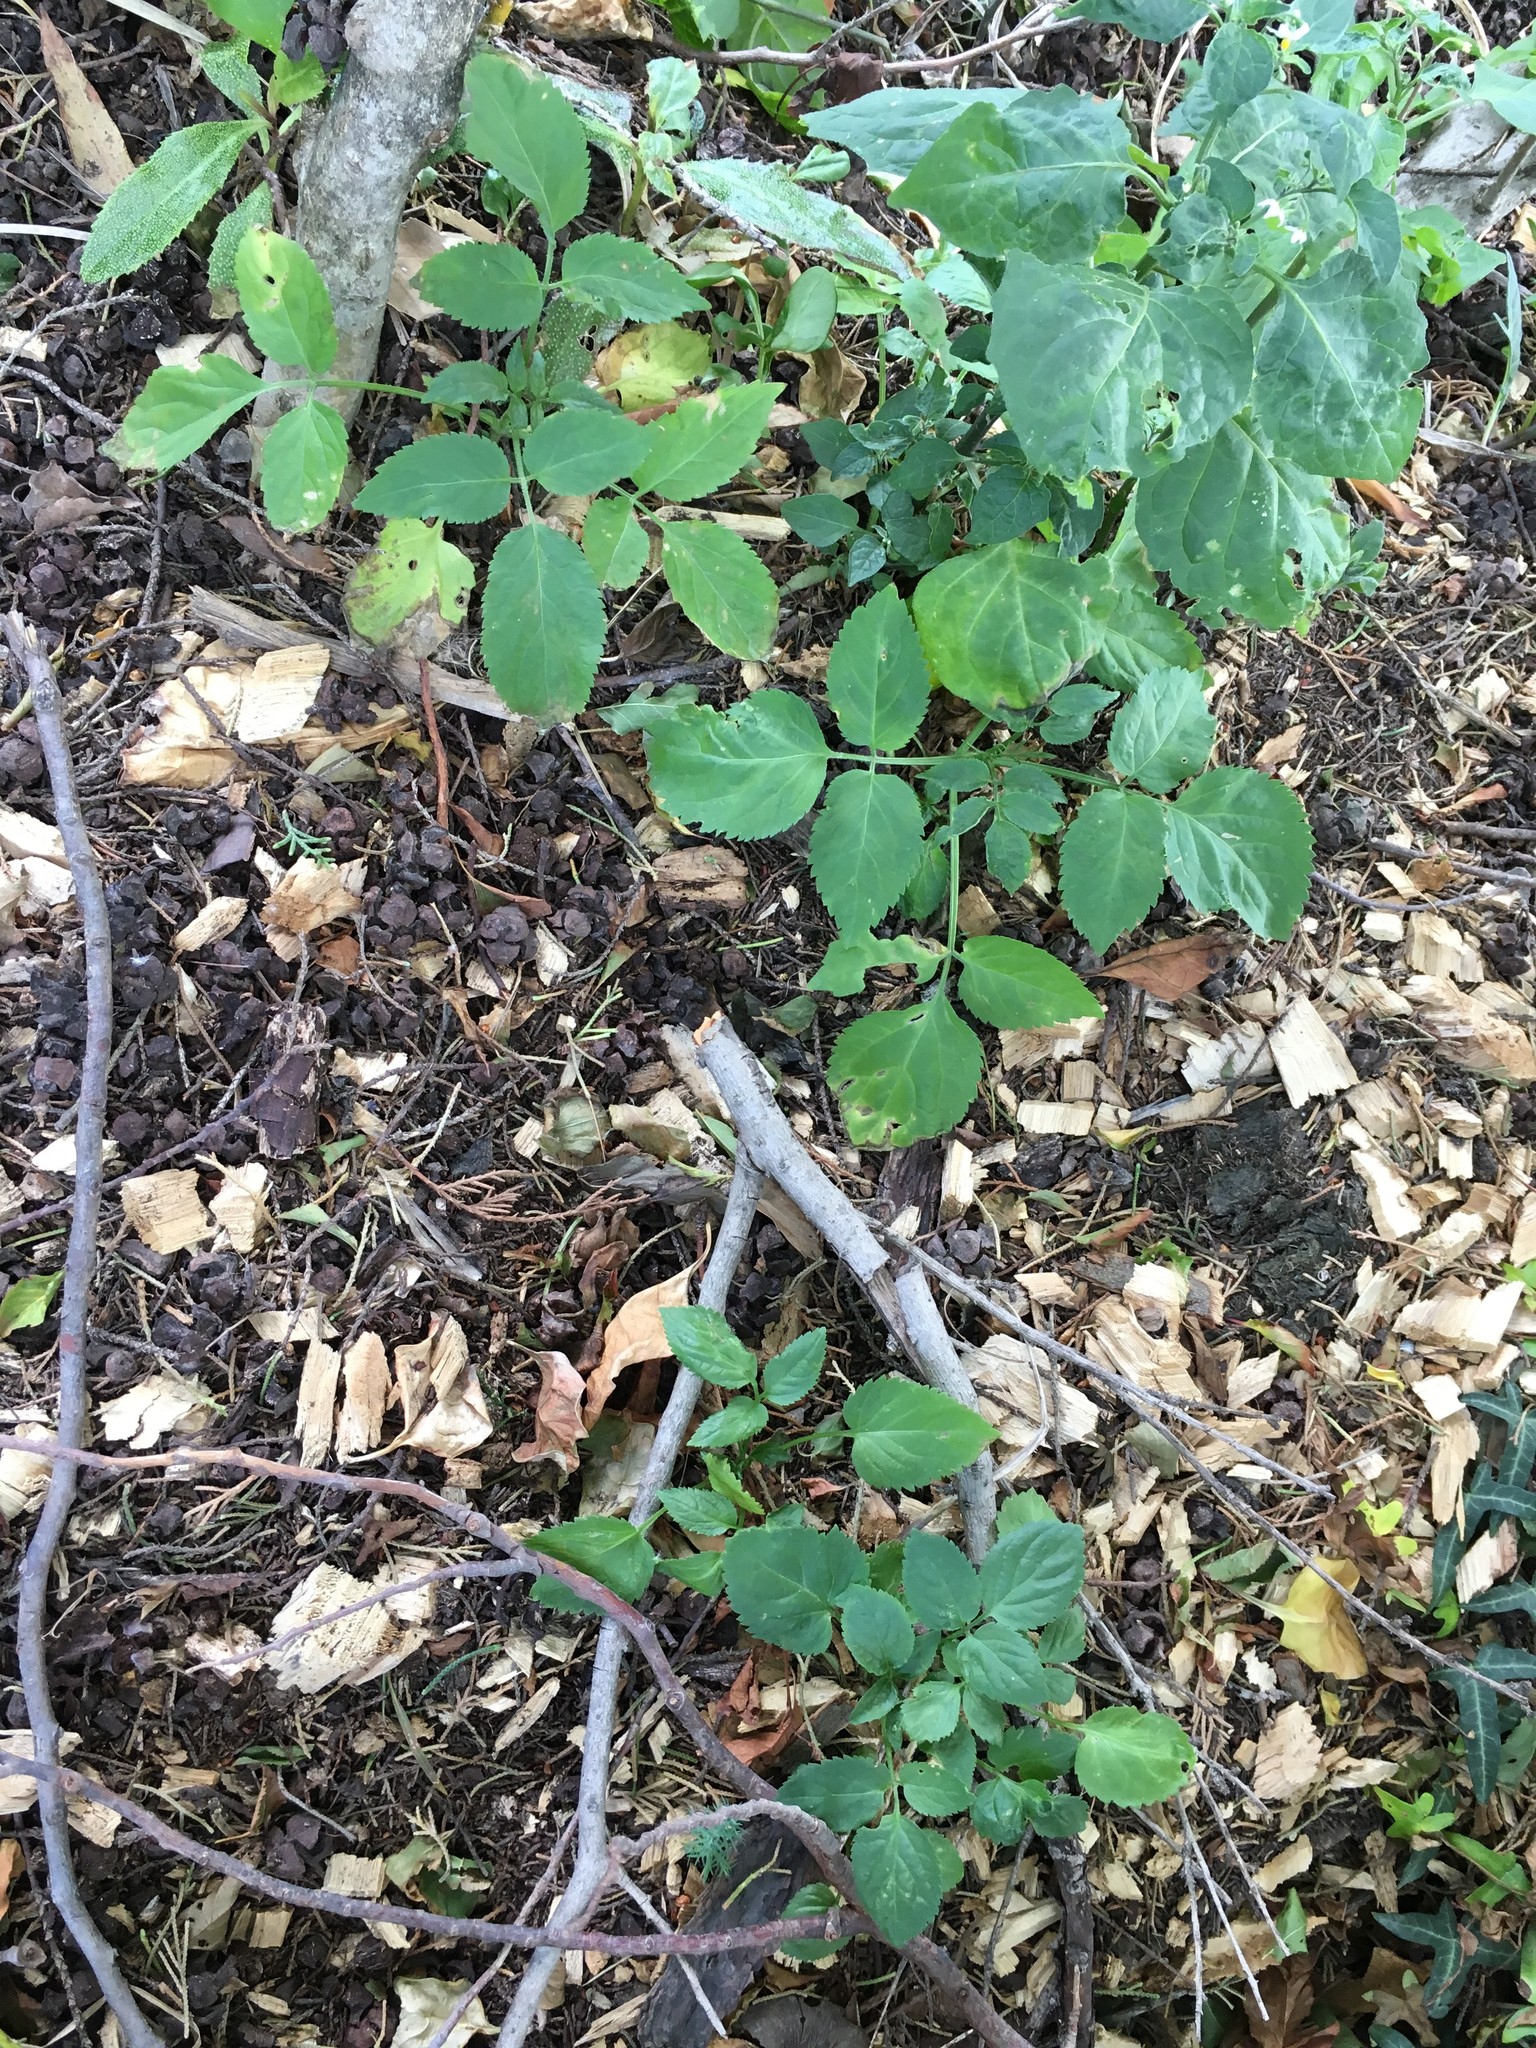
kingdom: Plantae
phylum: Tracheophyta
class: Magnoliopsida
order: Dipsacales
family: Viburnaceae
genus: Sambucus
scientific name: Sambucus nigra
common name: Elder
